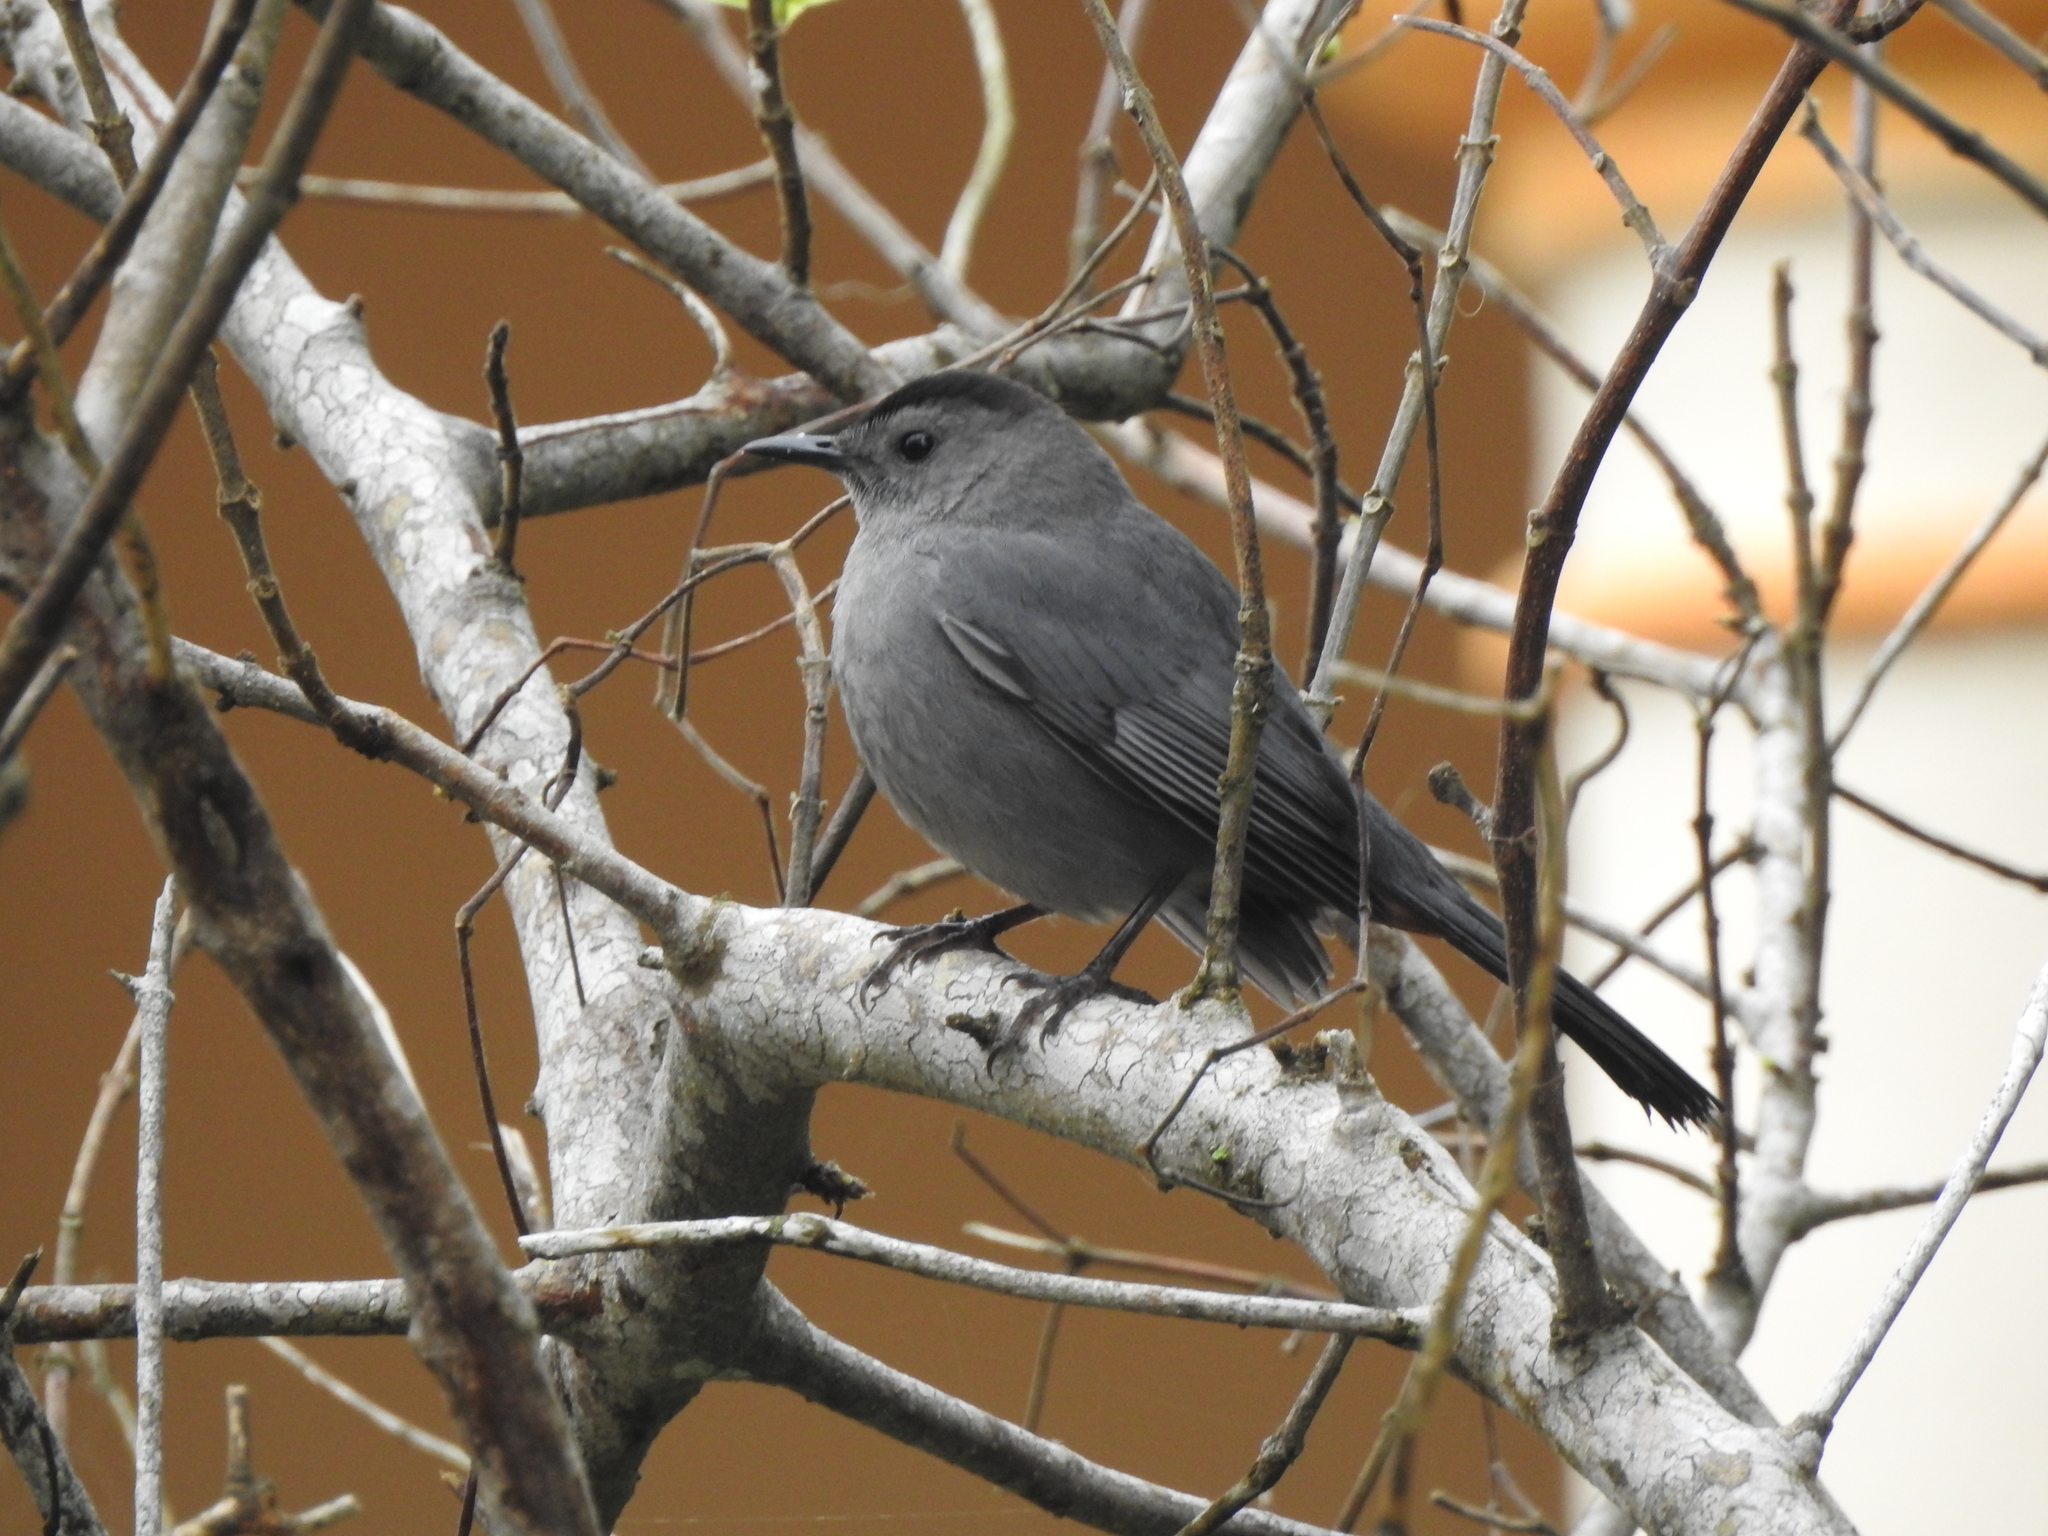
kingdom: Animalia
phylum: Chordata
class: Aves
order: Passeriformes
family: Mimidae
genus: Dumetella
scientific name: Dumetella carolinensis
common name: Gray catbird
